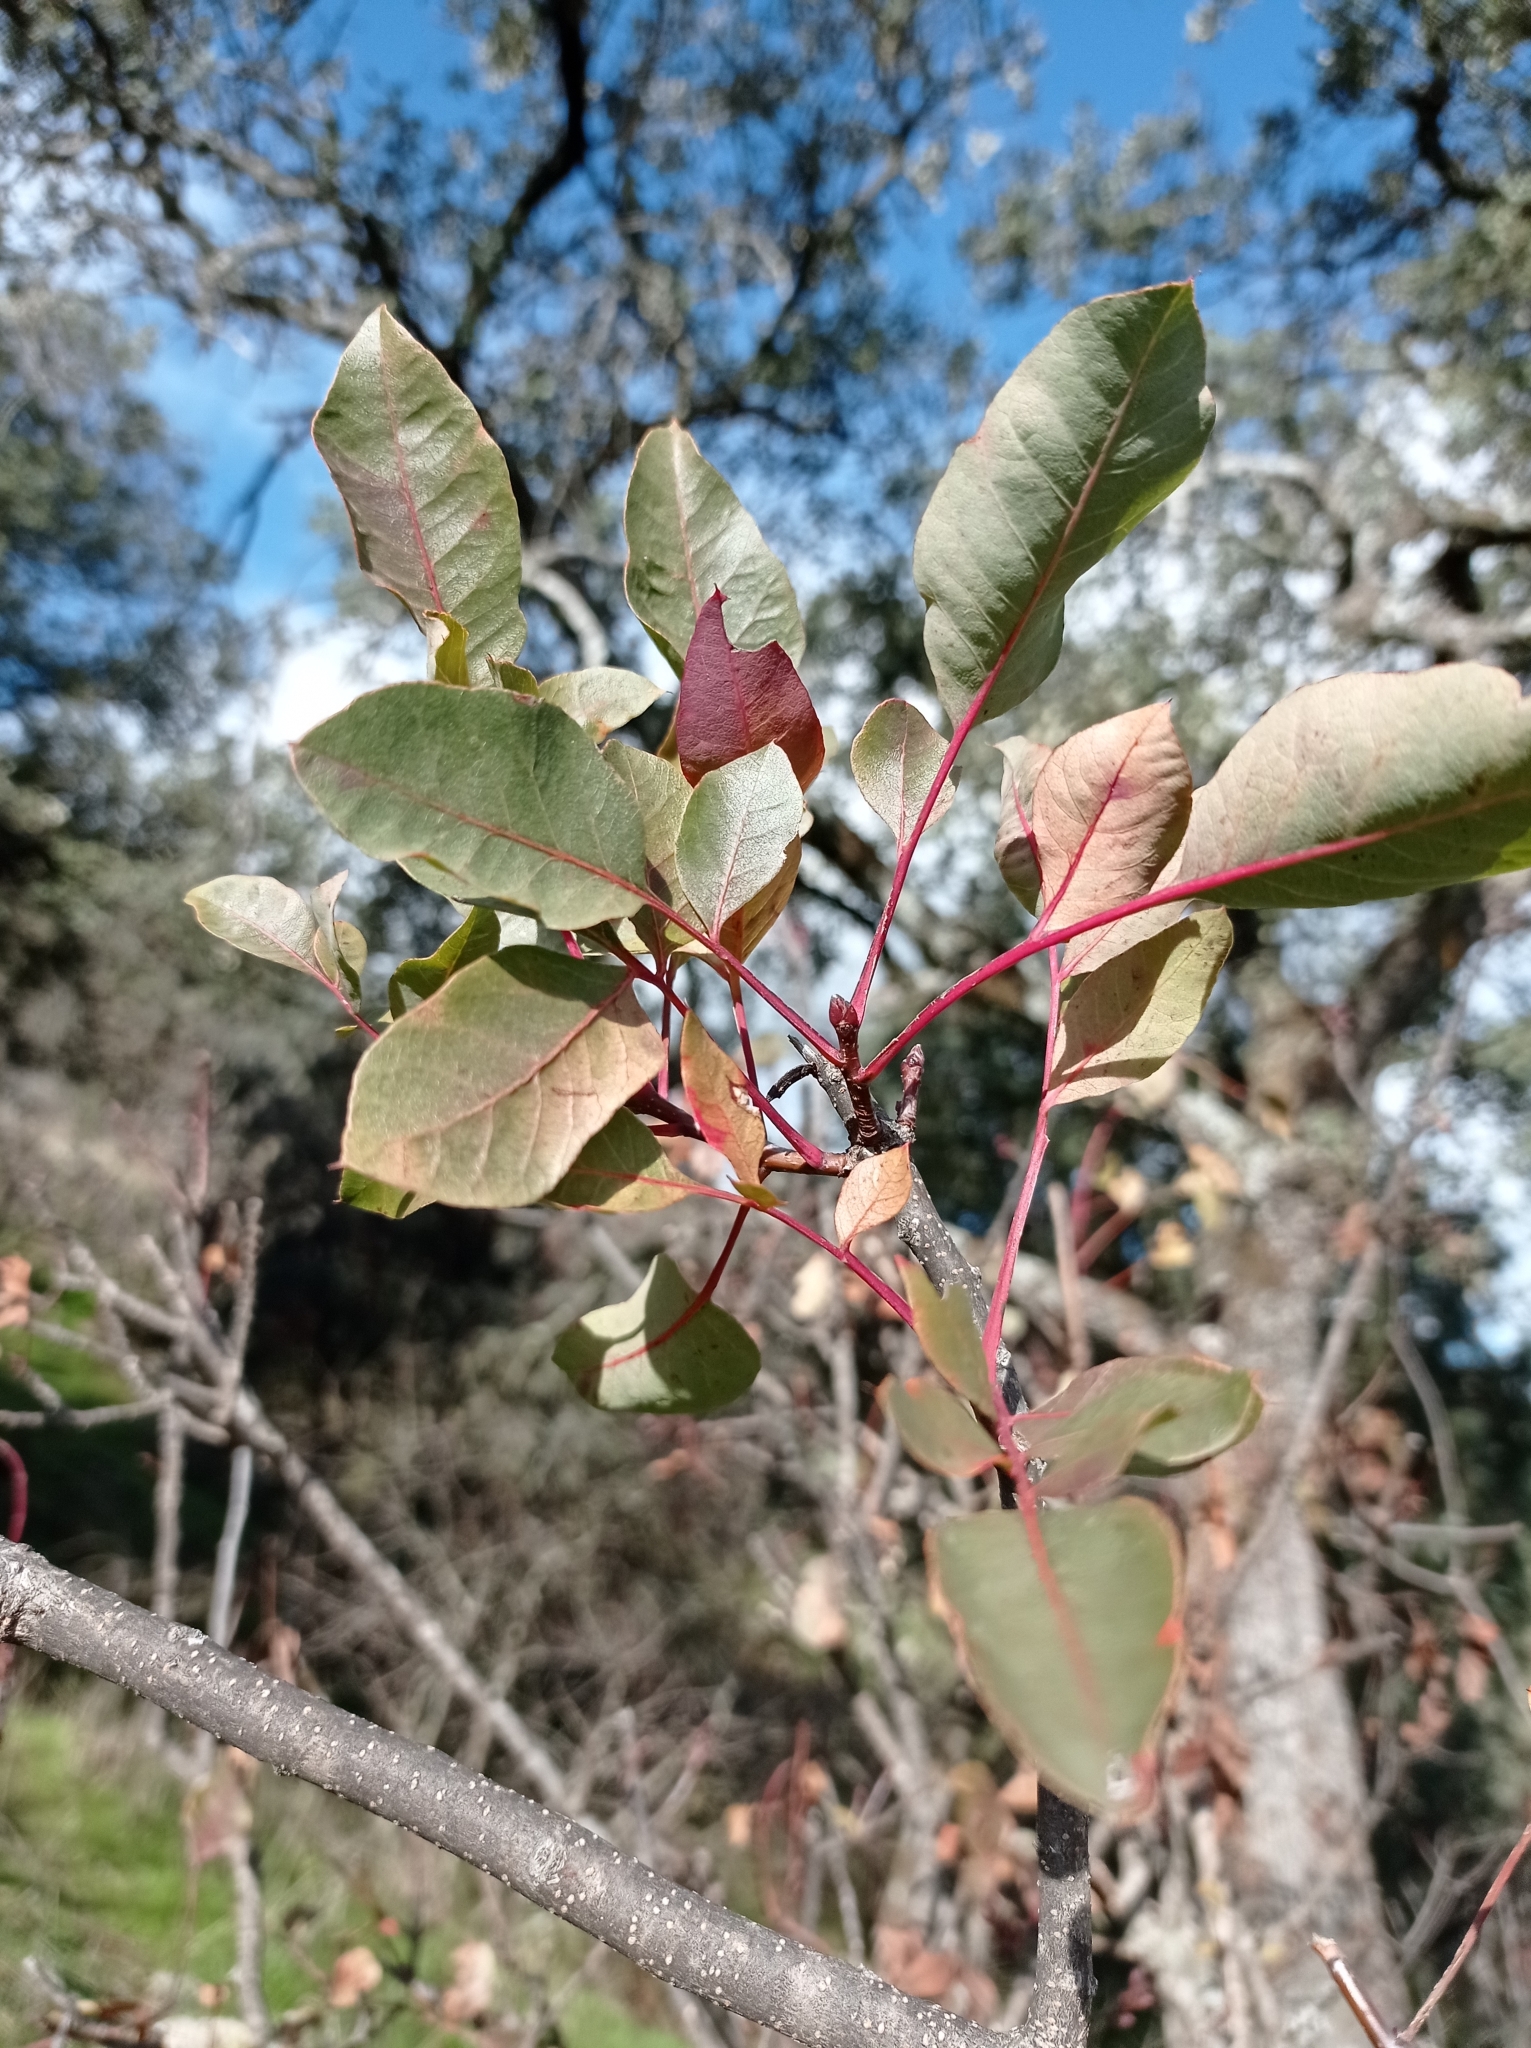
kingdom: Plantae
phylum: Tracheophyta
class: Magnoliopsida
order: Sapindales
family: Anacardiaceae
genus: Pistacia
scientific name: Pistacia terebinthus
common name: Terebinth
